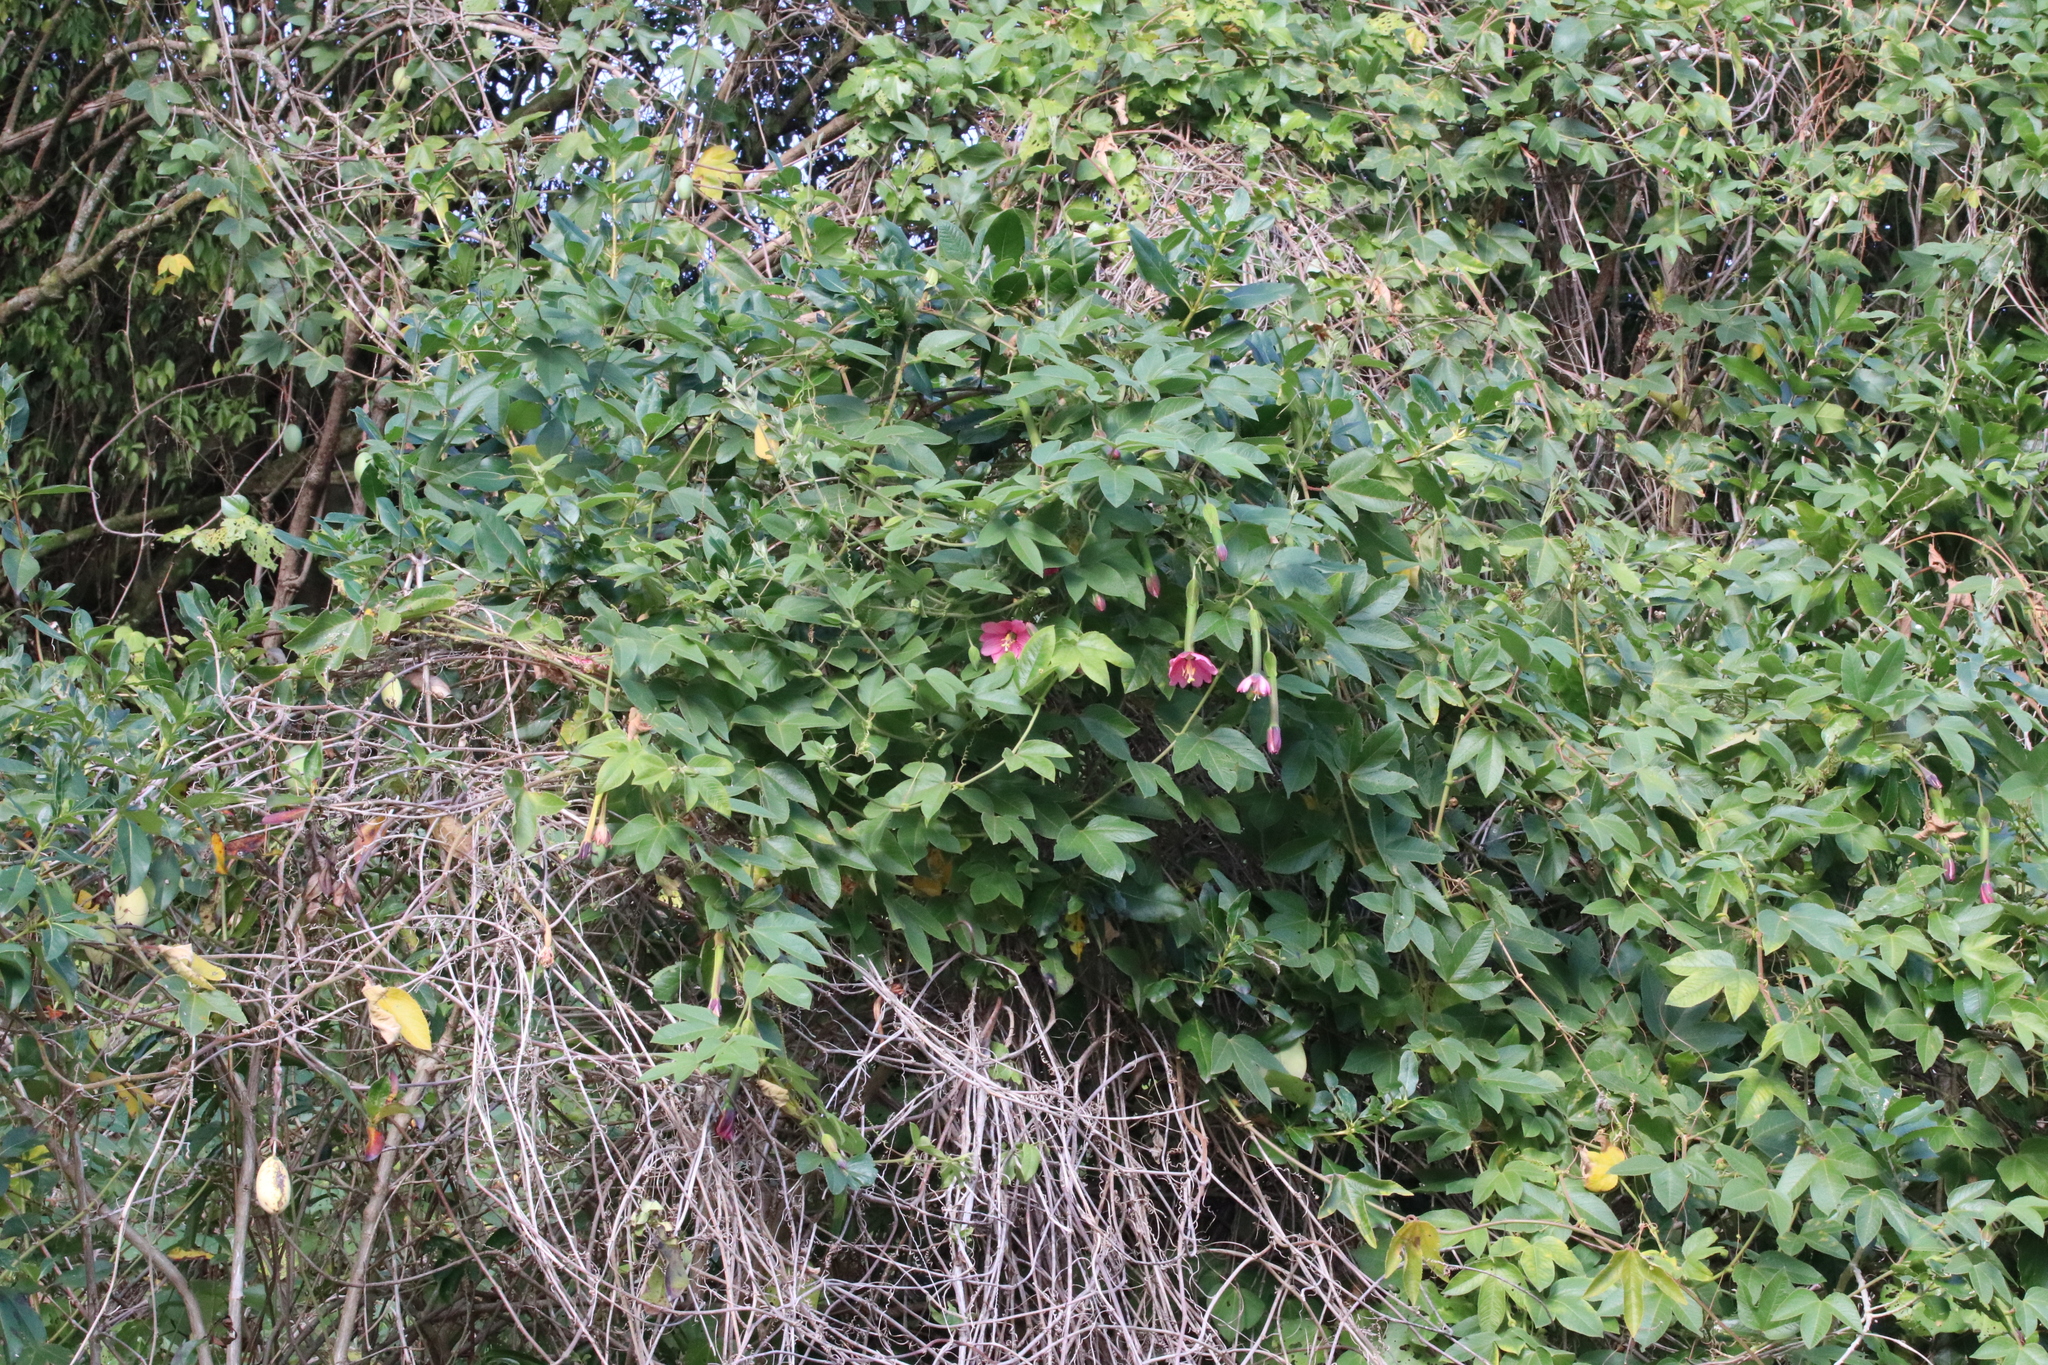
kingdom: Plantae
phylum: Tracheophyta
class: Magnoliopsida
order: Malpighiales
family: Passifloraceae
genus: Passiflora
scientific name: Passiflora tarminiana
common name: Banana poka
